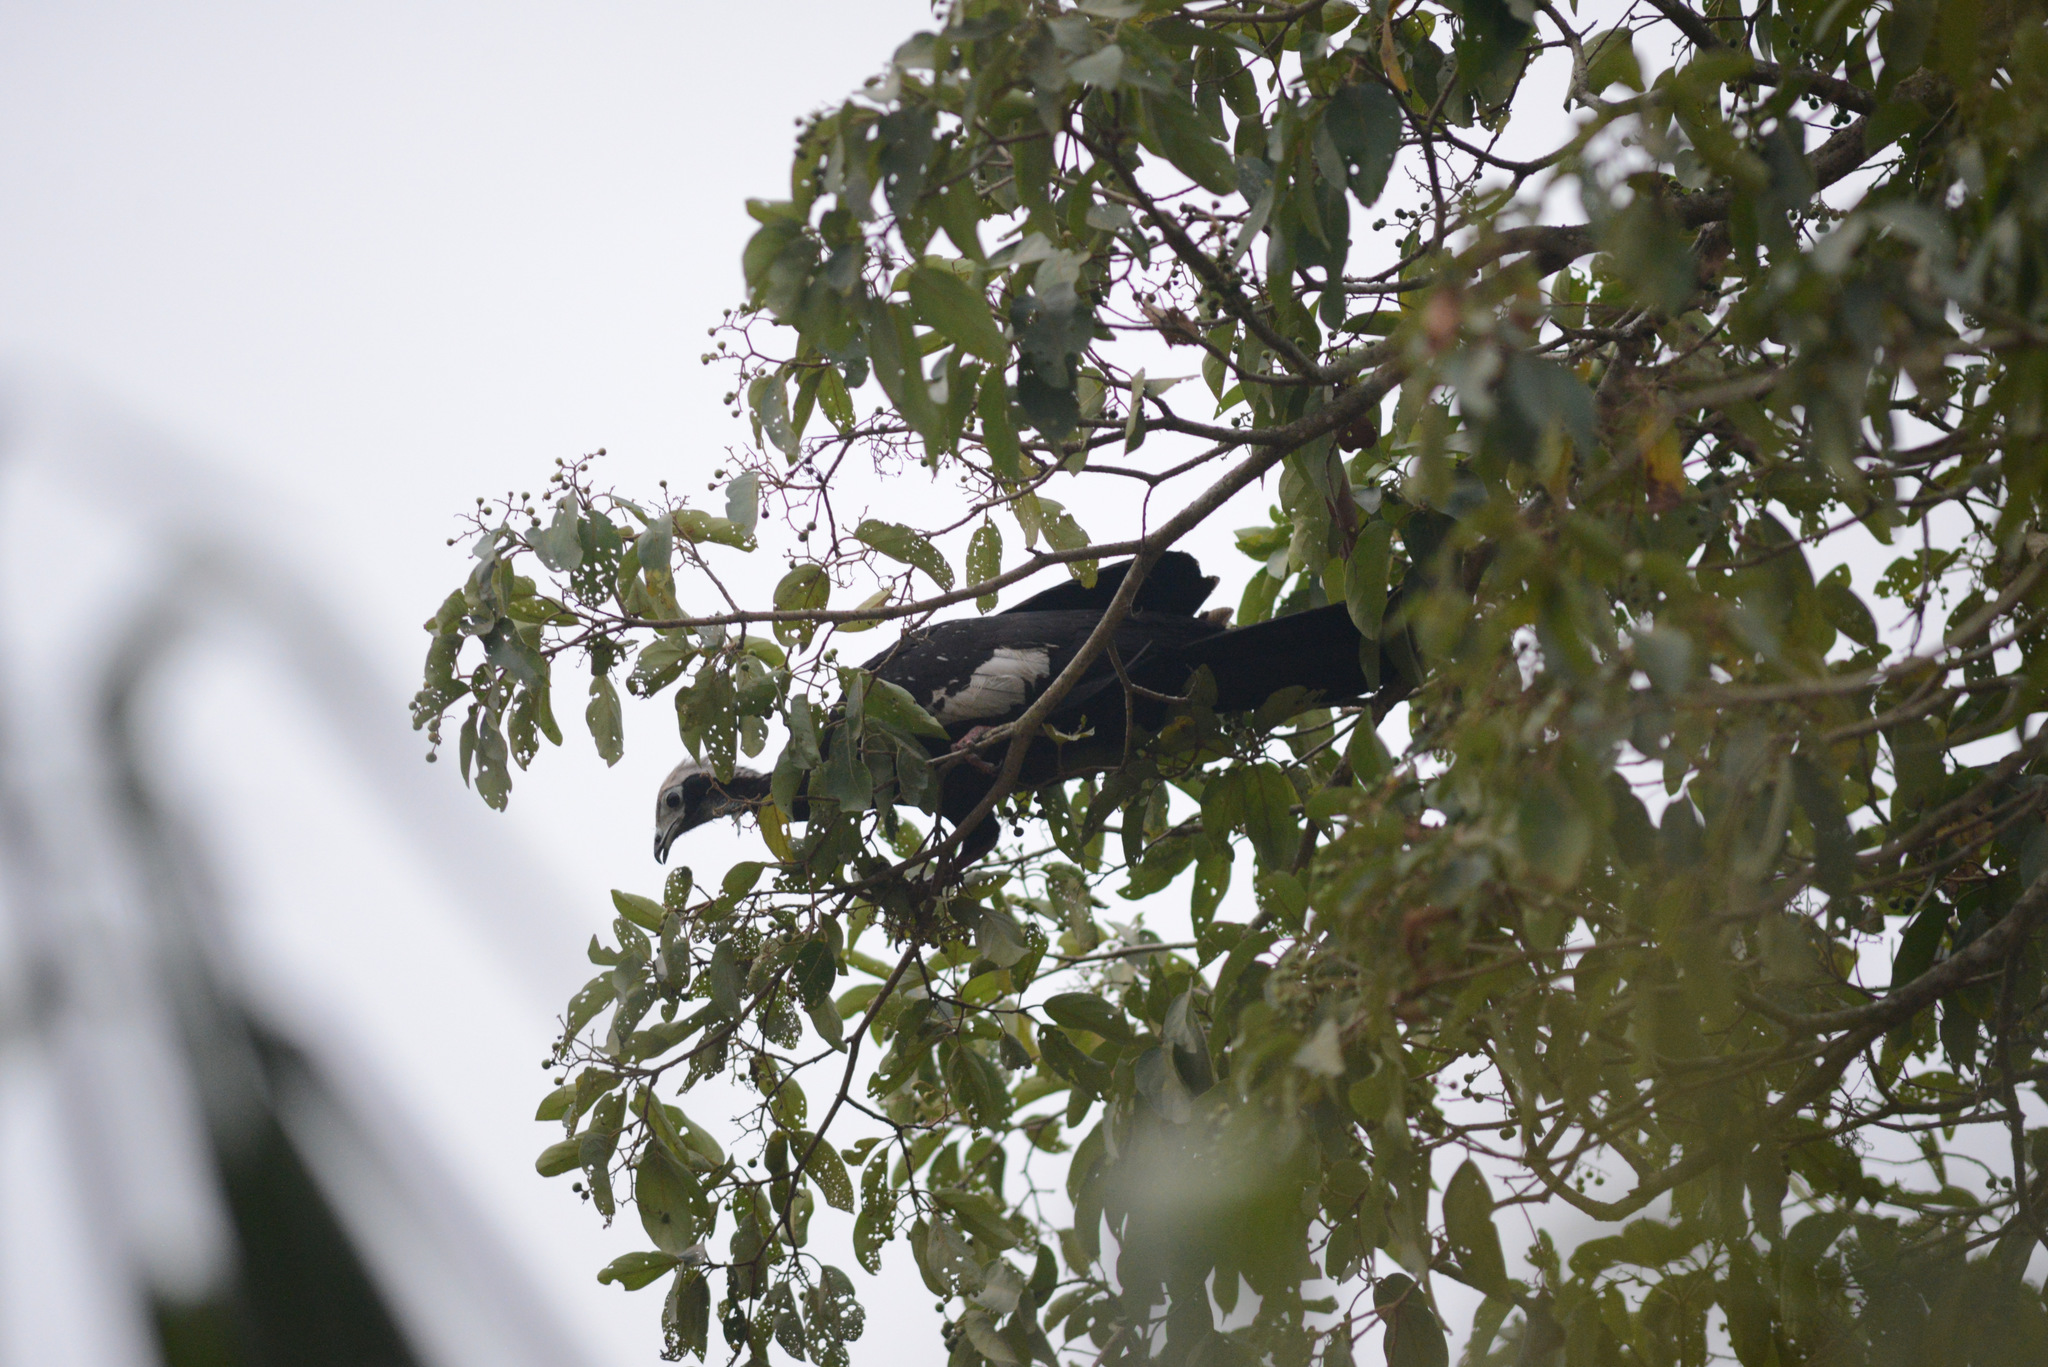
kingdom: Animalia
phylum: Chordata
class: Aves
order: Galliformes
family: Cracidae
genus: Pipile
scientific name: Pipile cumanensis
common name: Blue-throated piping-guan
